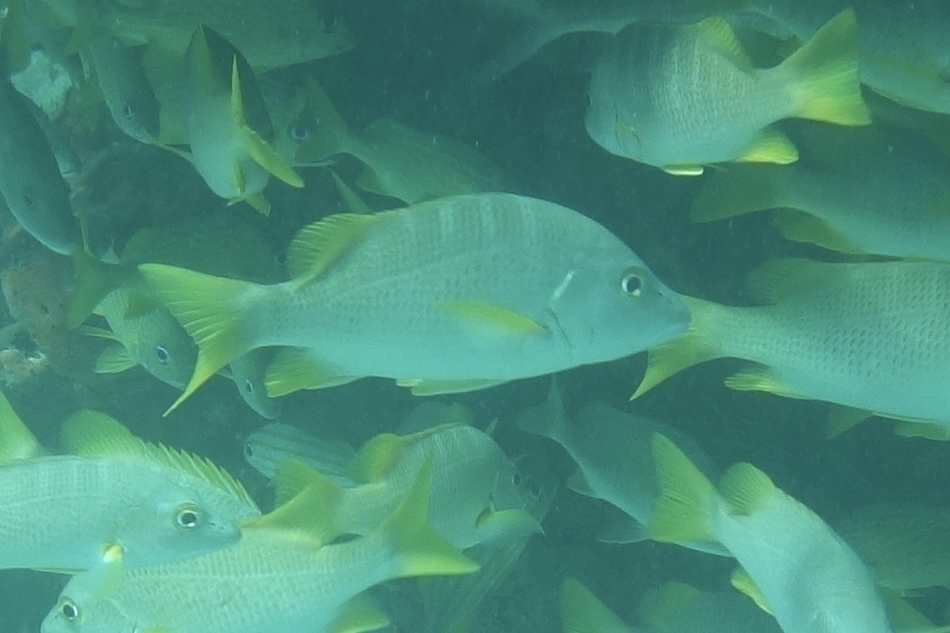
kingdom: Animalia
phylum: Chordata
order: Perciformes
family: Lutjanidae
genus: Lutjanus
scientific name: Lutjanus apodus
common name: Schoolmaster
